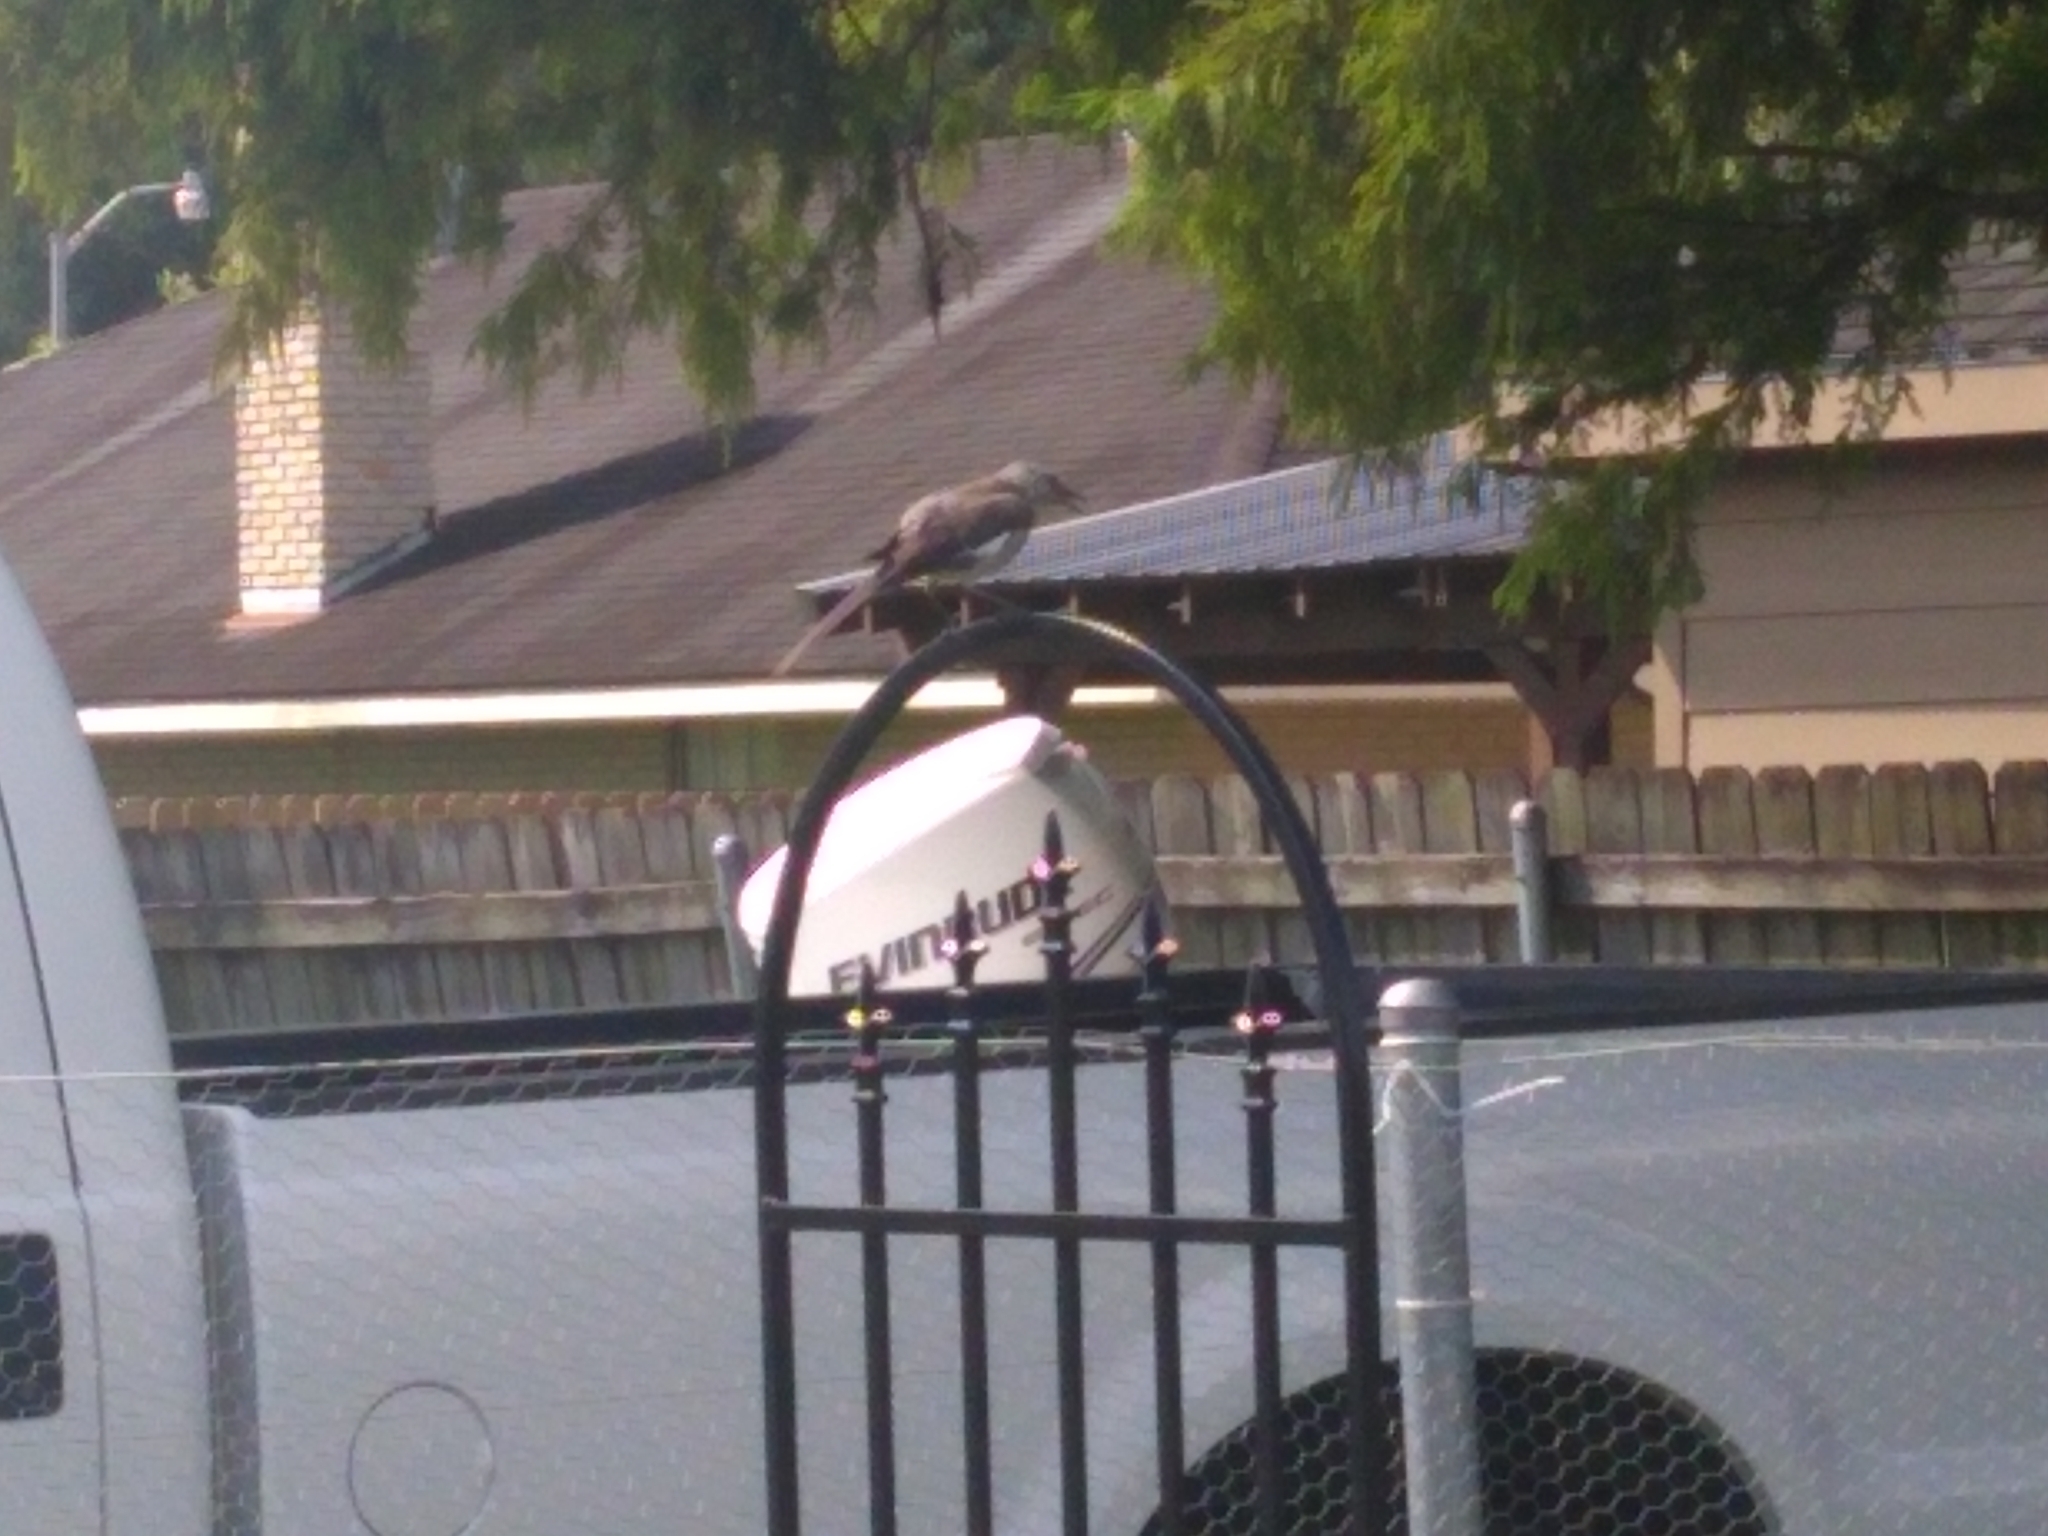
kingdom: Animalia
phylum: Chordata
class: Aves
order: Passeriformes
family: Mimidae
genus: Mimus
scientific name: Mimus polyglottos
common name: Northern mockingbird
